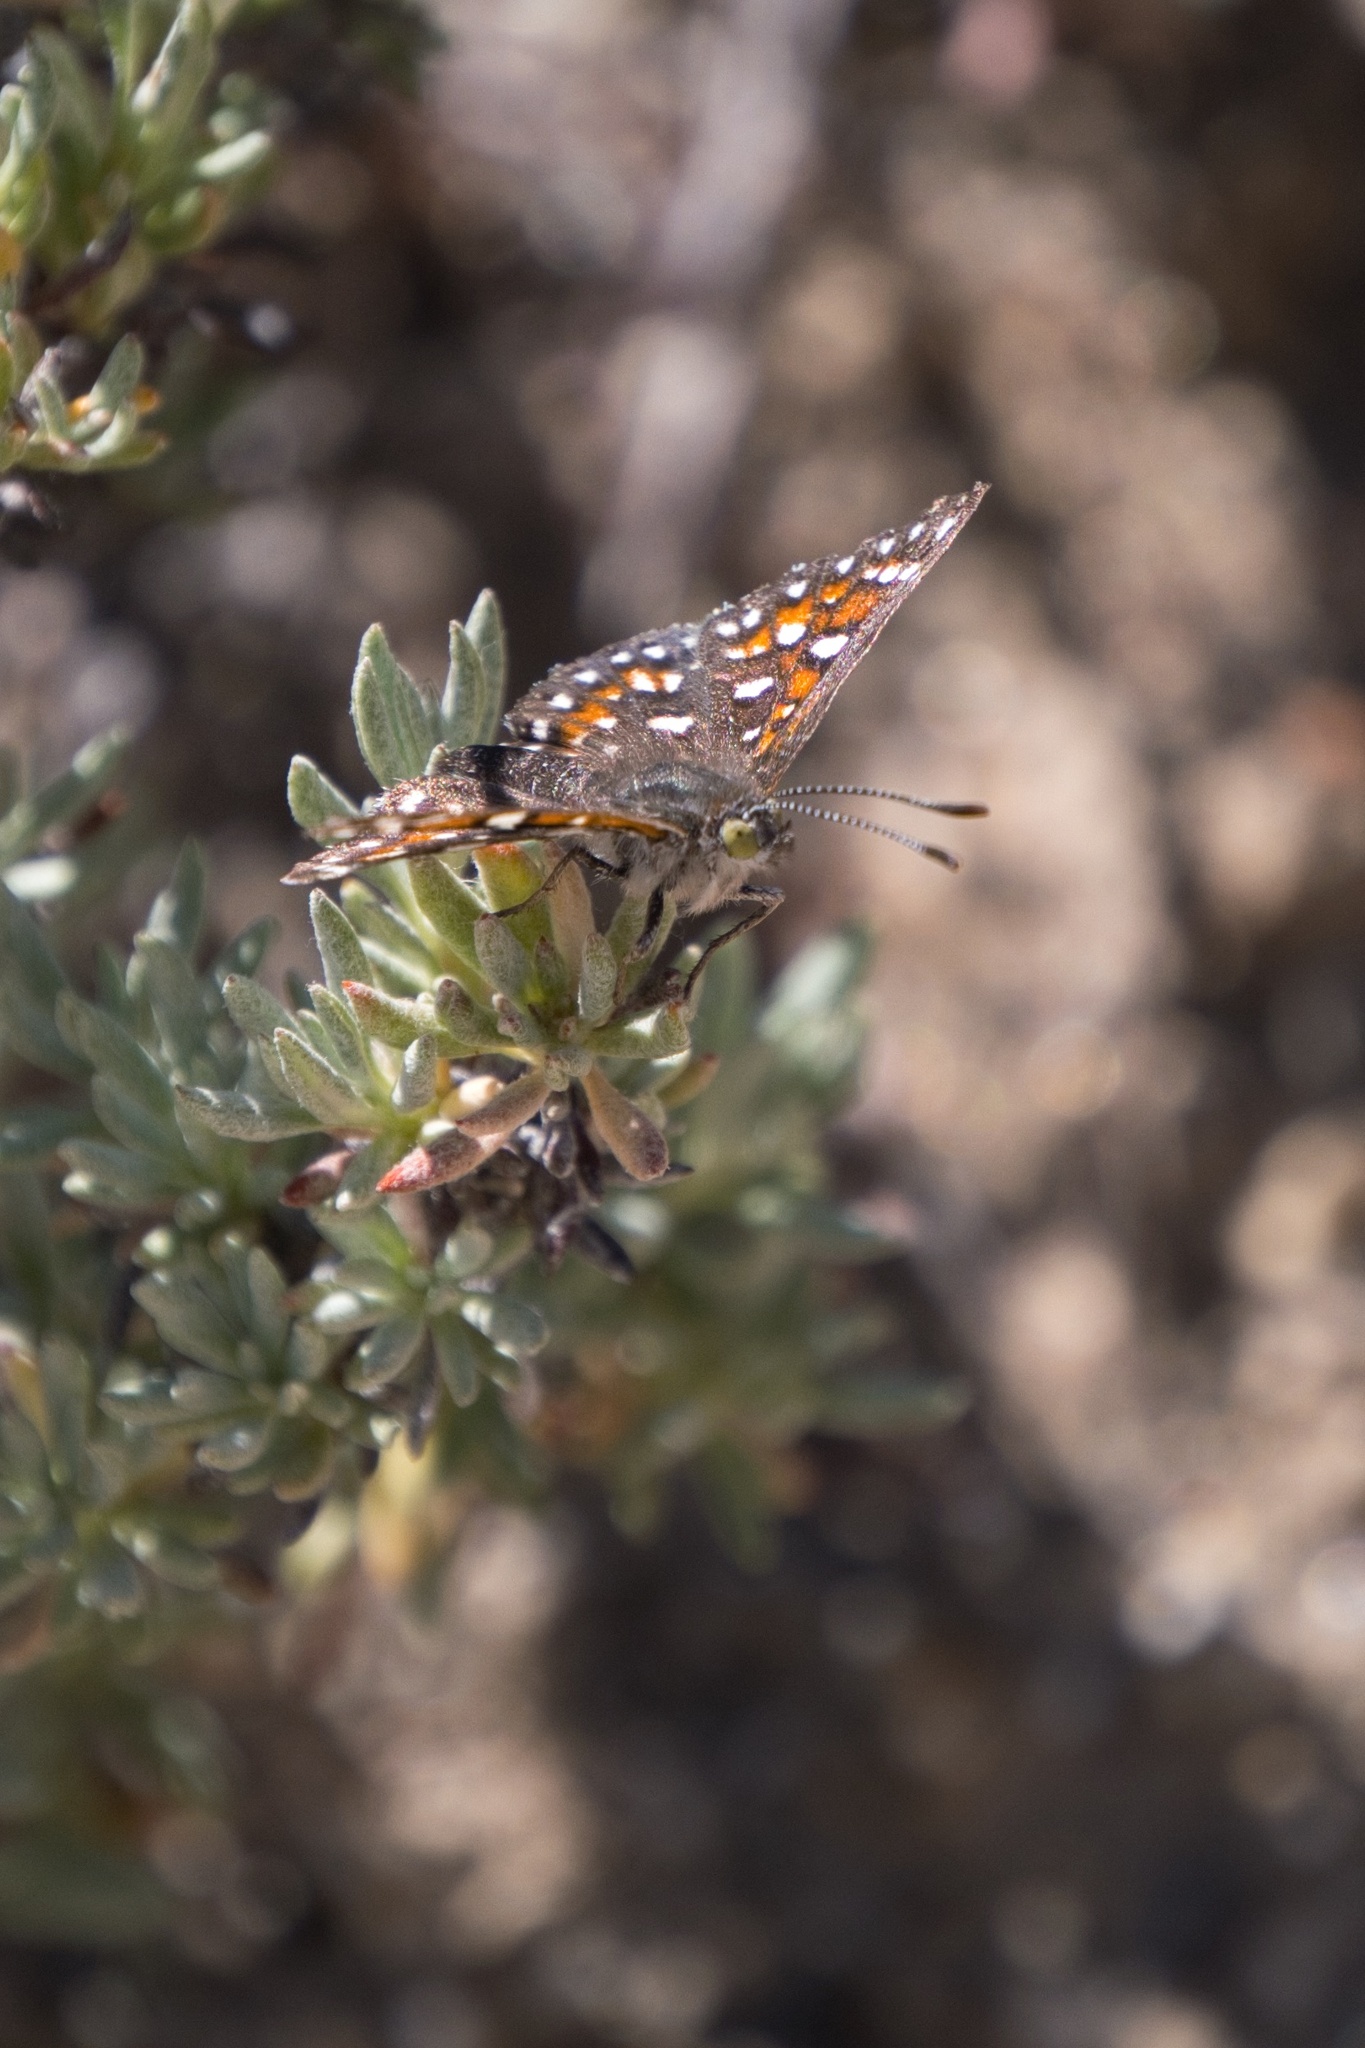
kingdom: Animalia
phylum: Arthropoda
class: Insecta
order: Lepidoptera
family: Riodinidae
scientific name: Riodinidae
